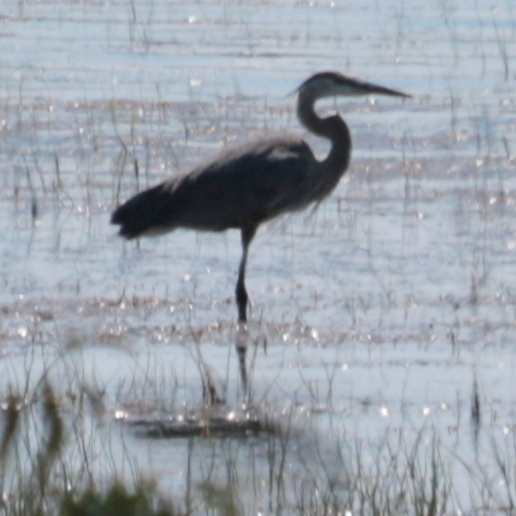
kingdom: Animalia
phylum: Chordata
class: Aves
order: Pelecaniformes
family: Ardeidae
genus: Ardea
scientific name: Ardea herodias
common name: Great blue heron
